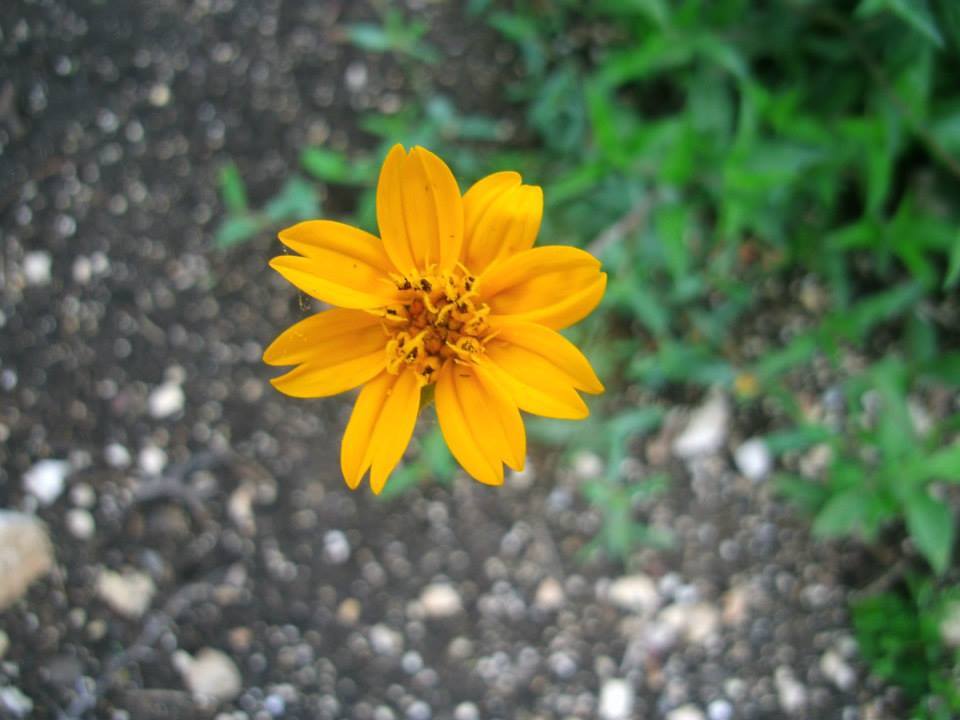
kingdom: Plantae
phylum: Tracheophyta
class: Magnoliopsida
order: Asterales
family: Asteraceae
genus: Cosmos
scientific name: Cosmos sulphureus
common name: Sulphur cosmos
